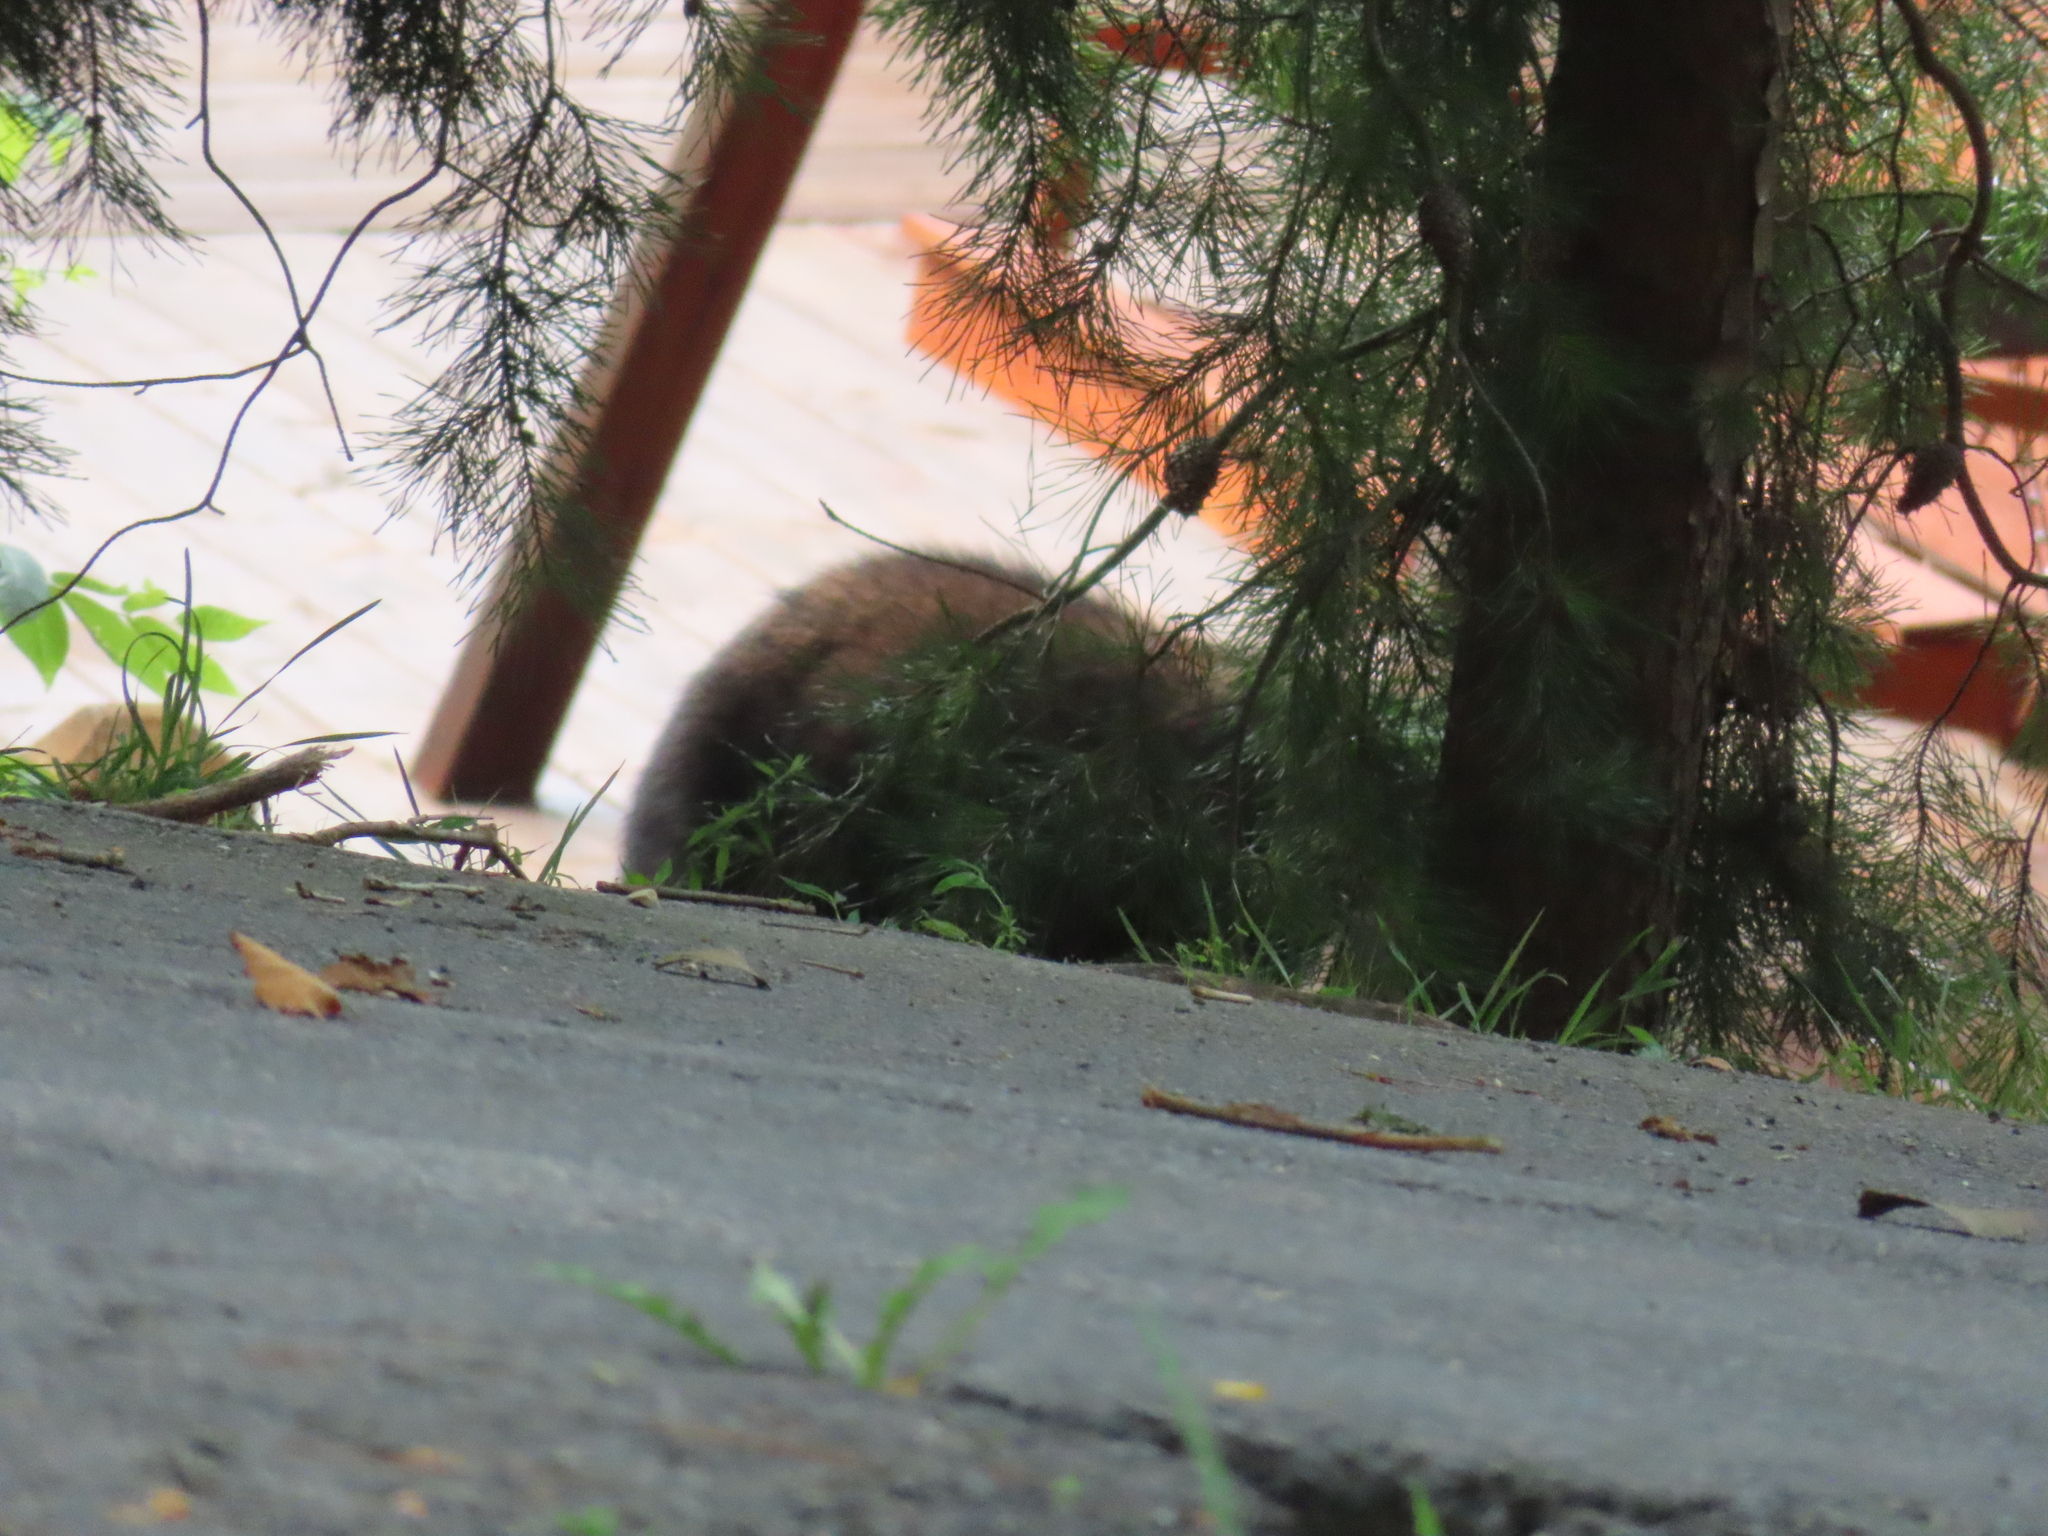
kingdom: Animalia
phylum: Chordata
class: Mammalia
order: Carnivora
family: Ursidae
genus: Ursus
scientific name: Ursus americanus
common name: American black bear
